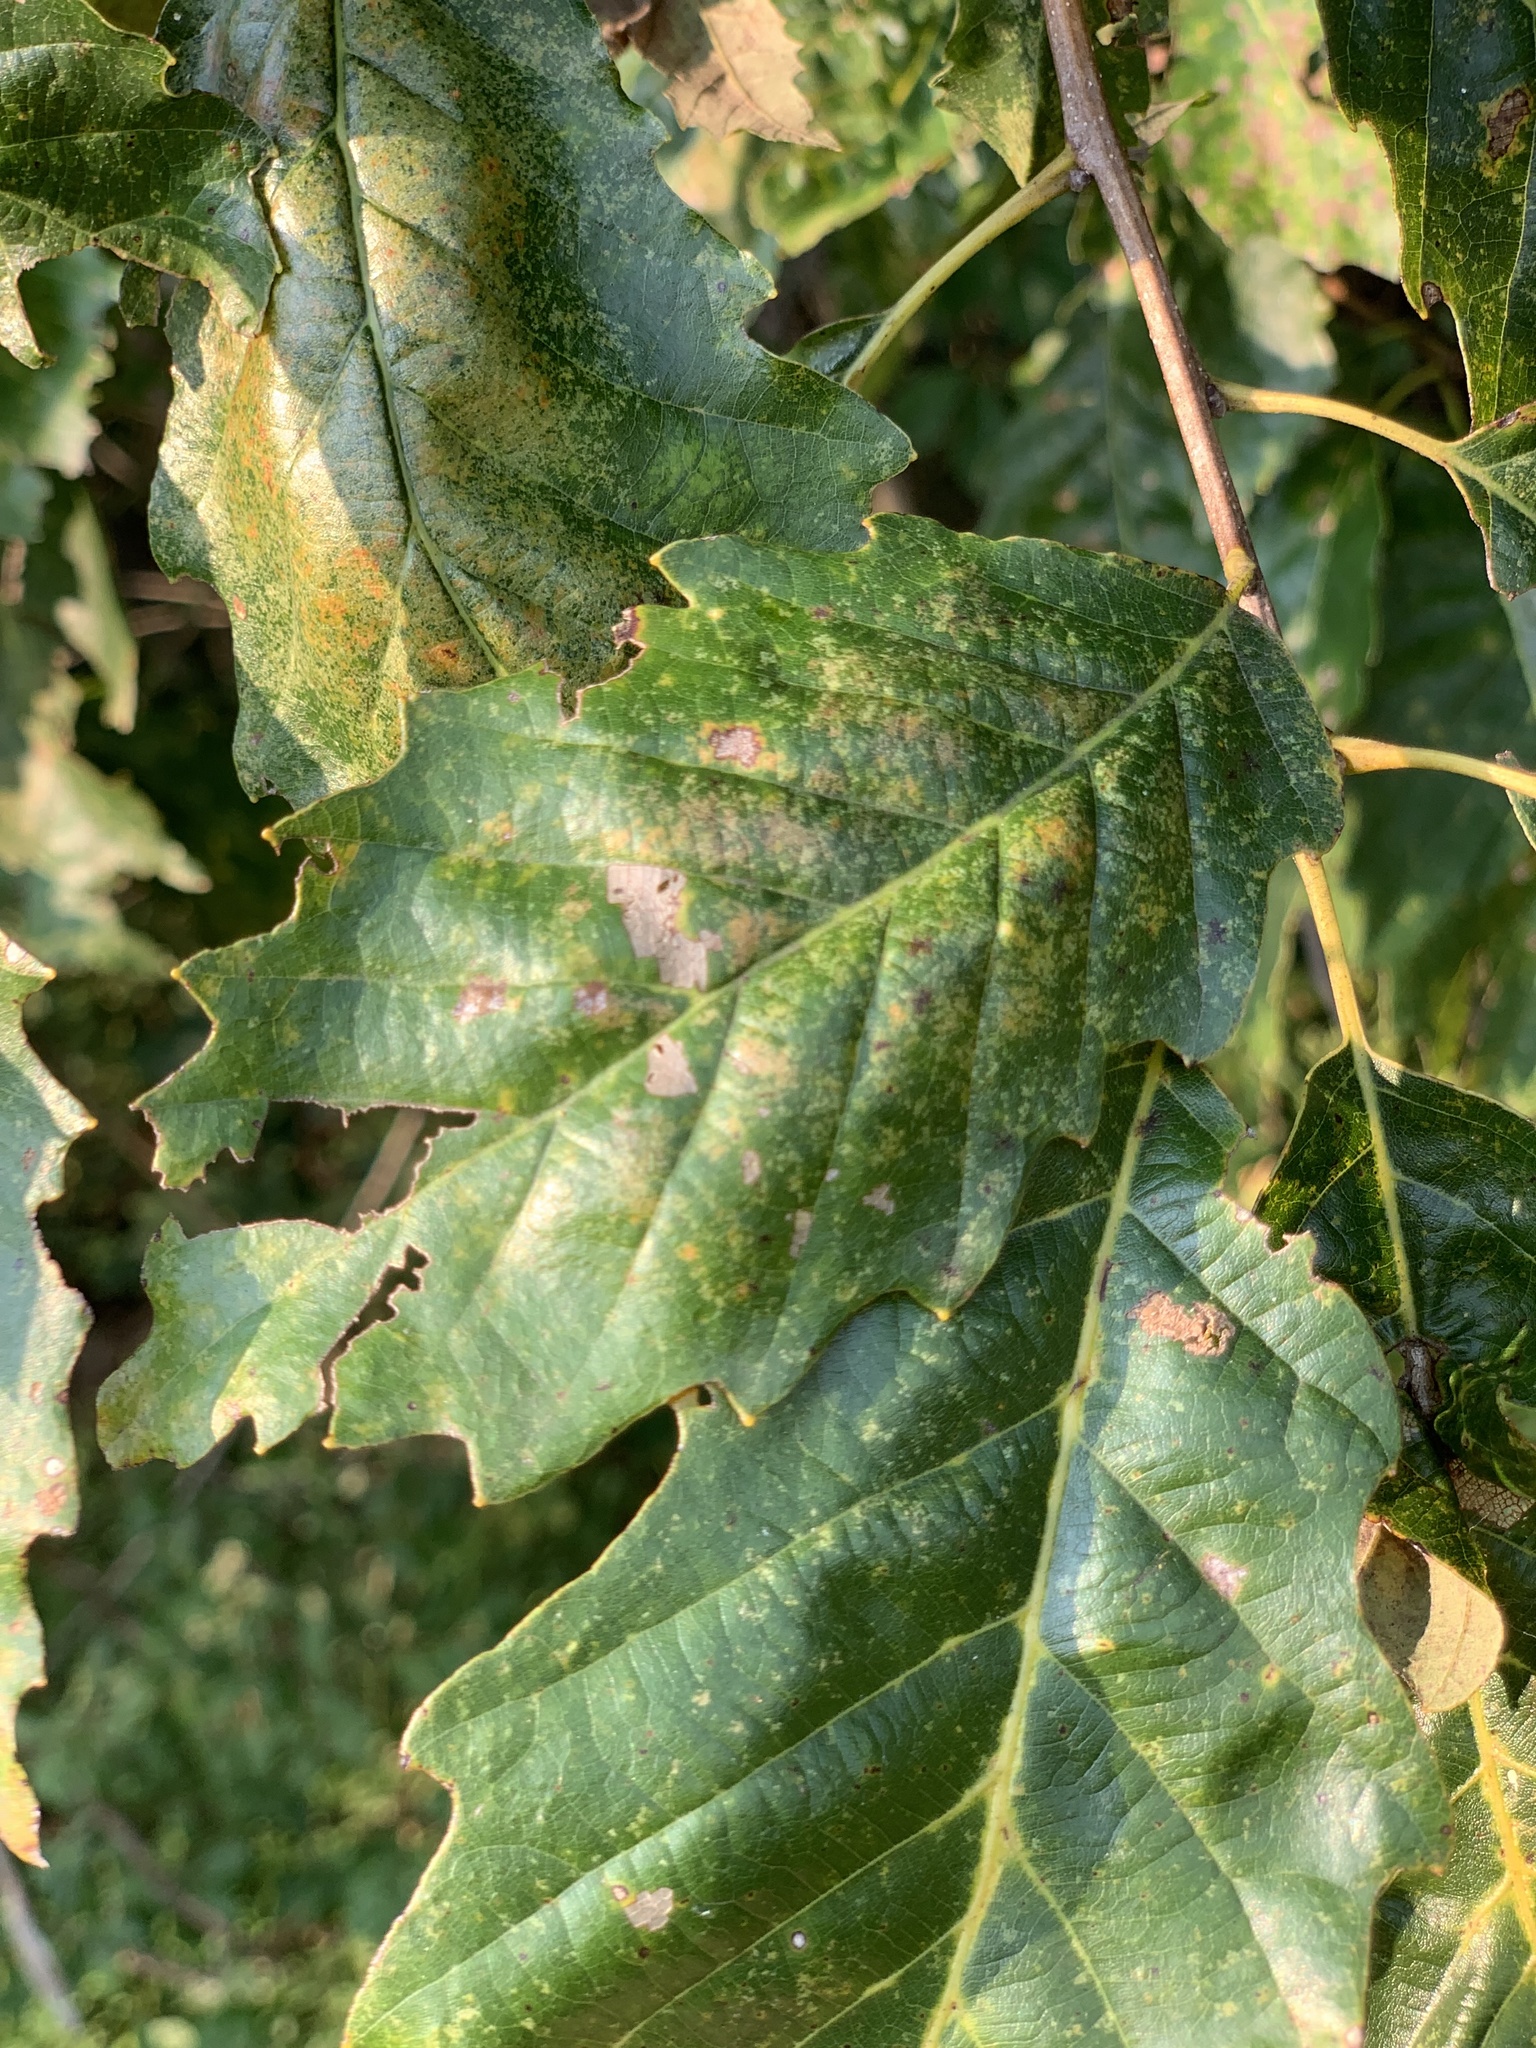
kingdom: Plantae
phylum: Tracheophyta
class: Magnoliopsida
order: Fagales
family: Fagaceae
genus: Quercus
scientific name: Quercus muehlenbergii
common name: Chinkapin oak
